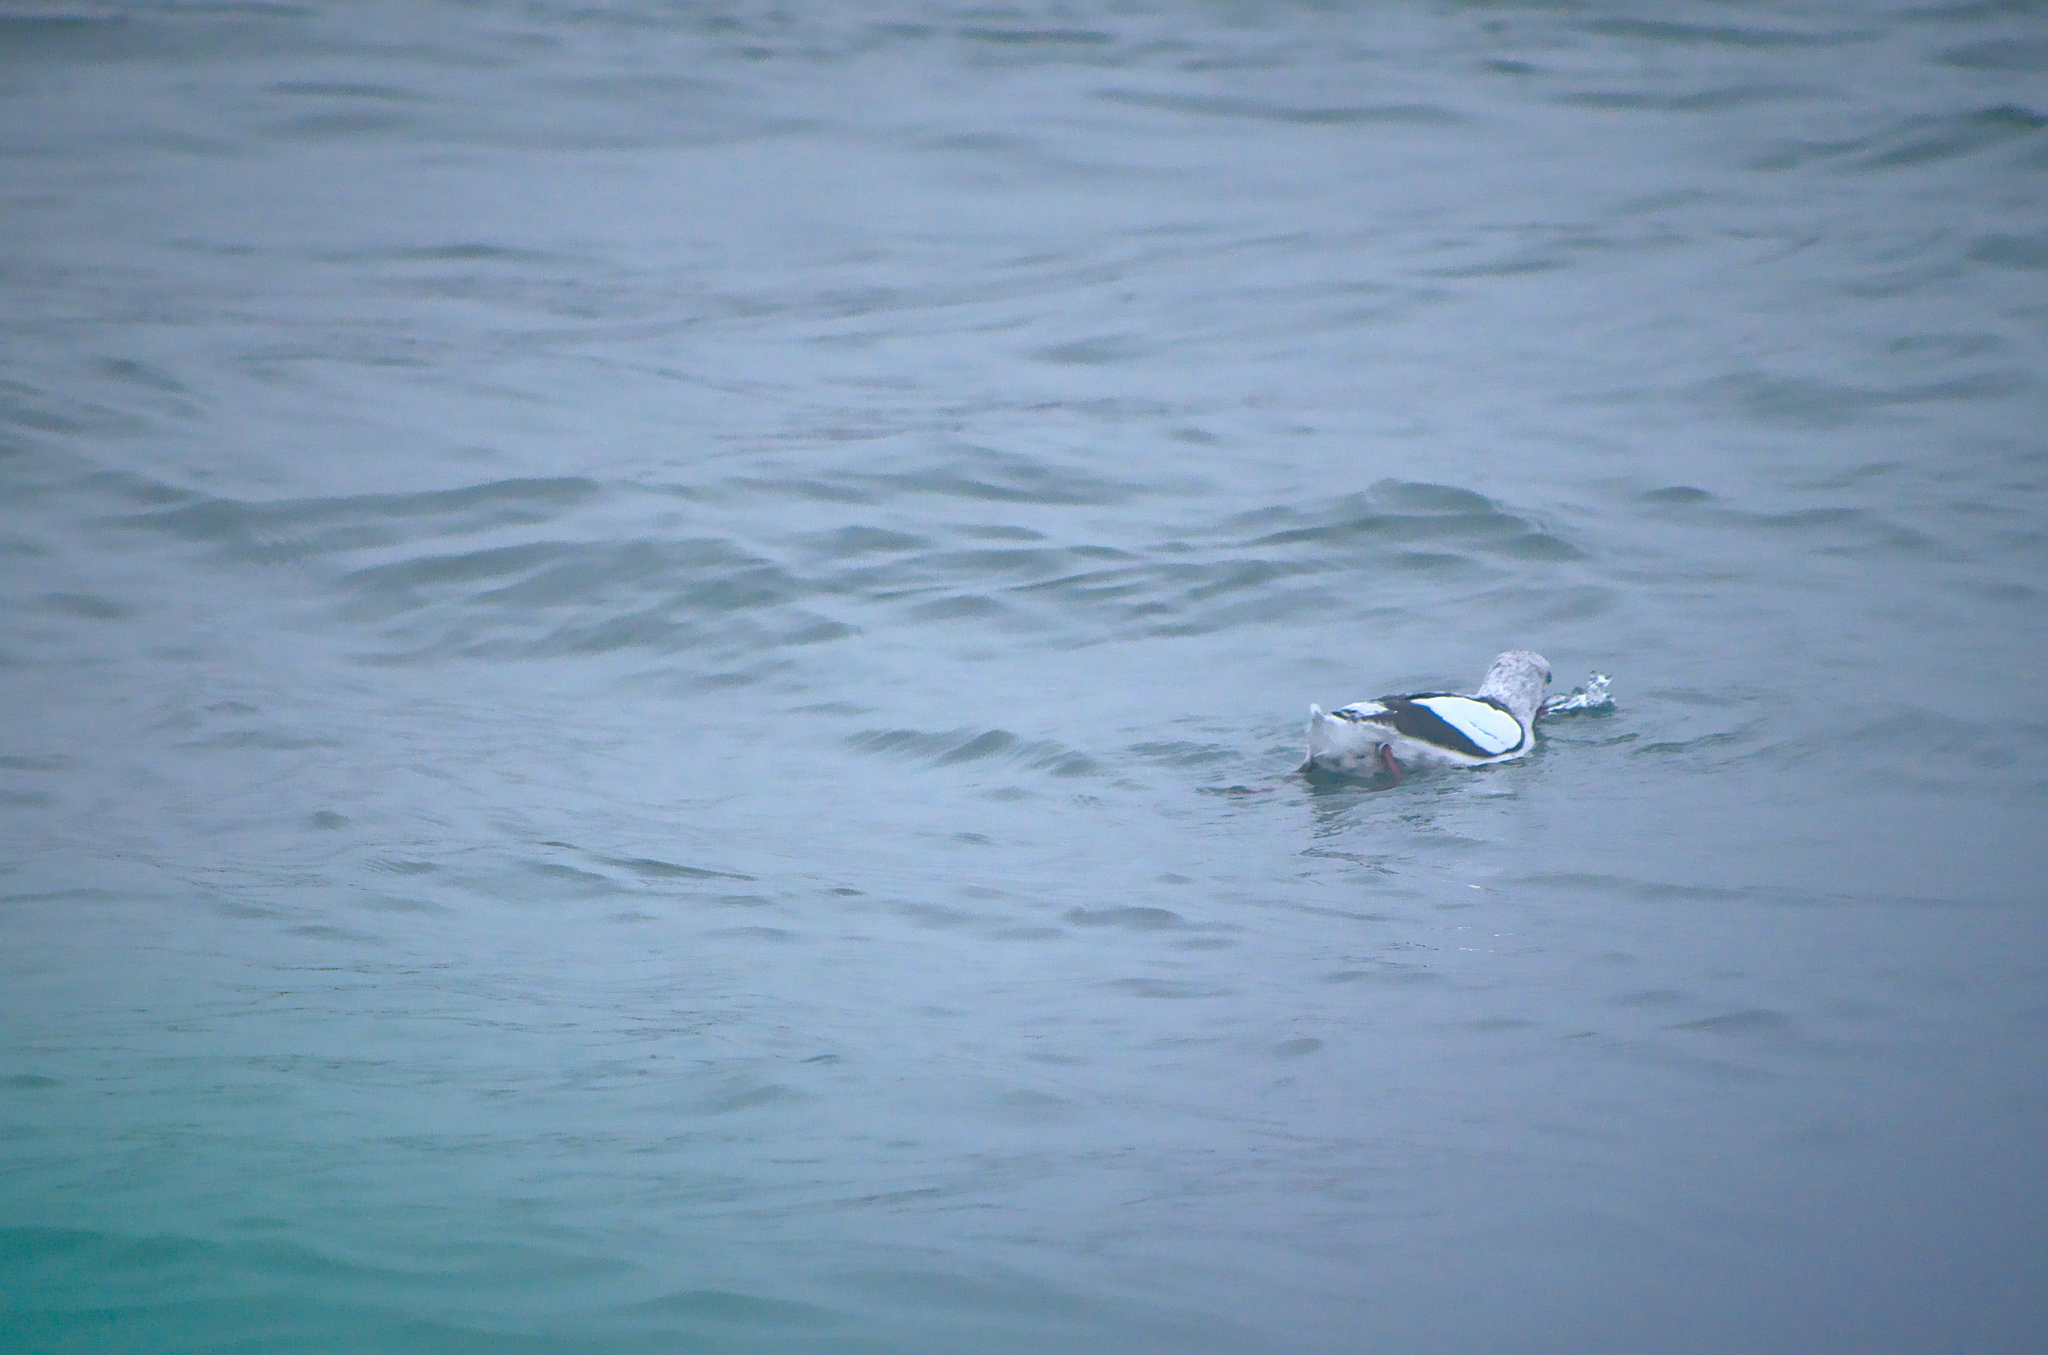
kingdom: Animalia
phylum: Chordata
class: Aves
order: Charadriiformes
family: Alcidae
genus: Cepphus
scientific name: Cepphus grylle
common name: Black guillemot
